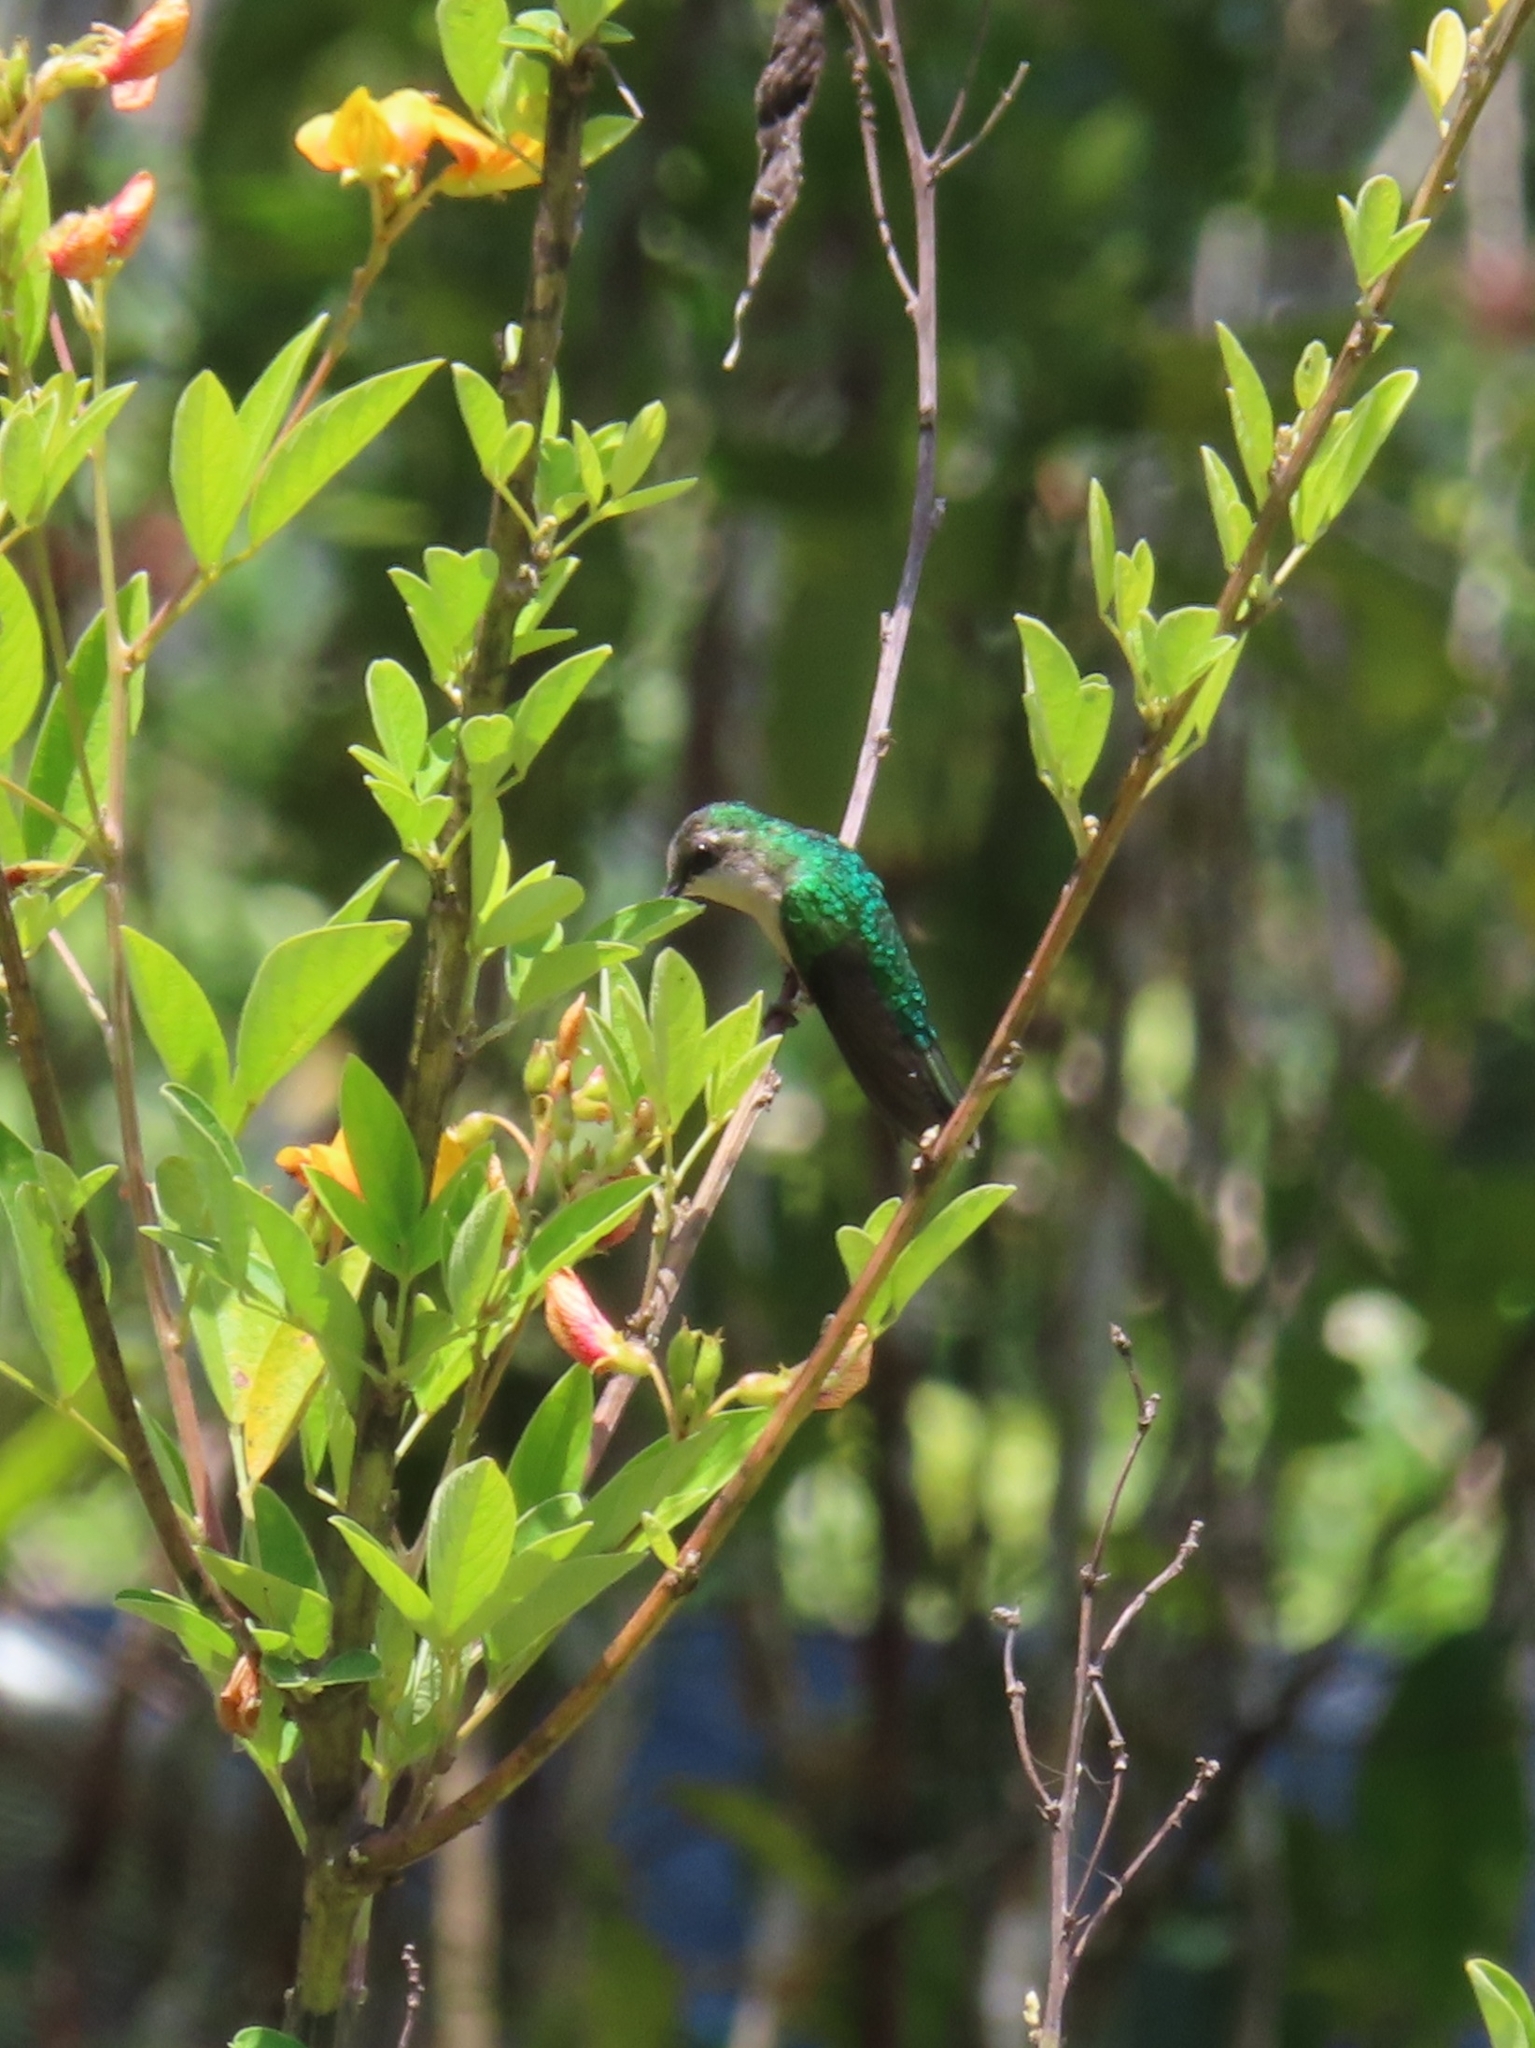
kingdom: Animalia
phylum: Chordata
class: Aves
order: Apodiformes
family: Trochilidae
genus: Riccordia
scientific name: Riccordia maugaeus
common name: Puerto rican emerald
